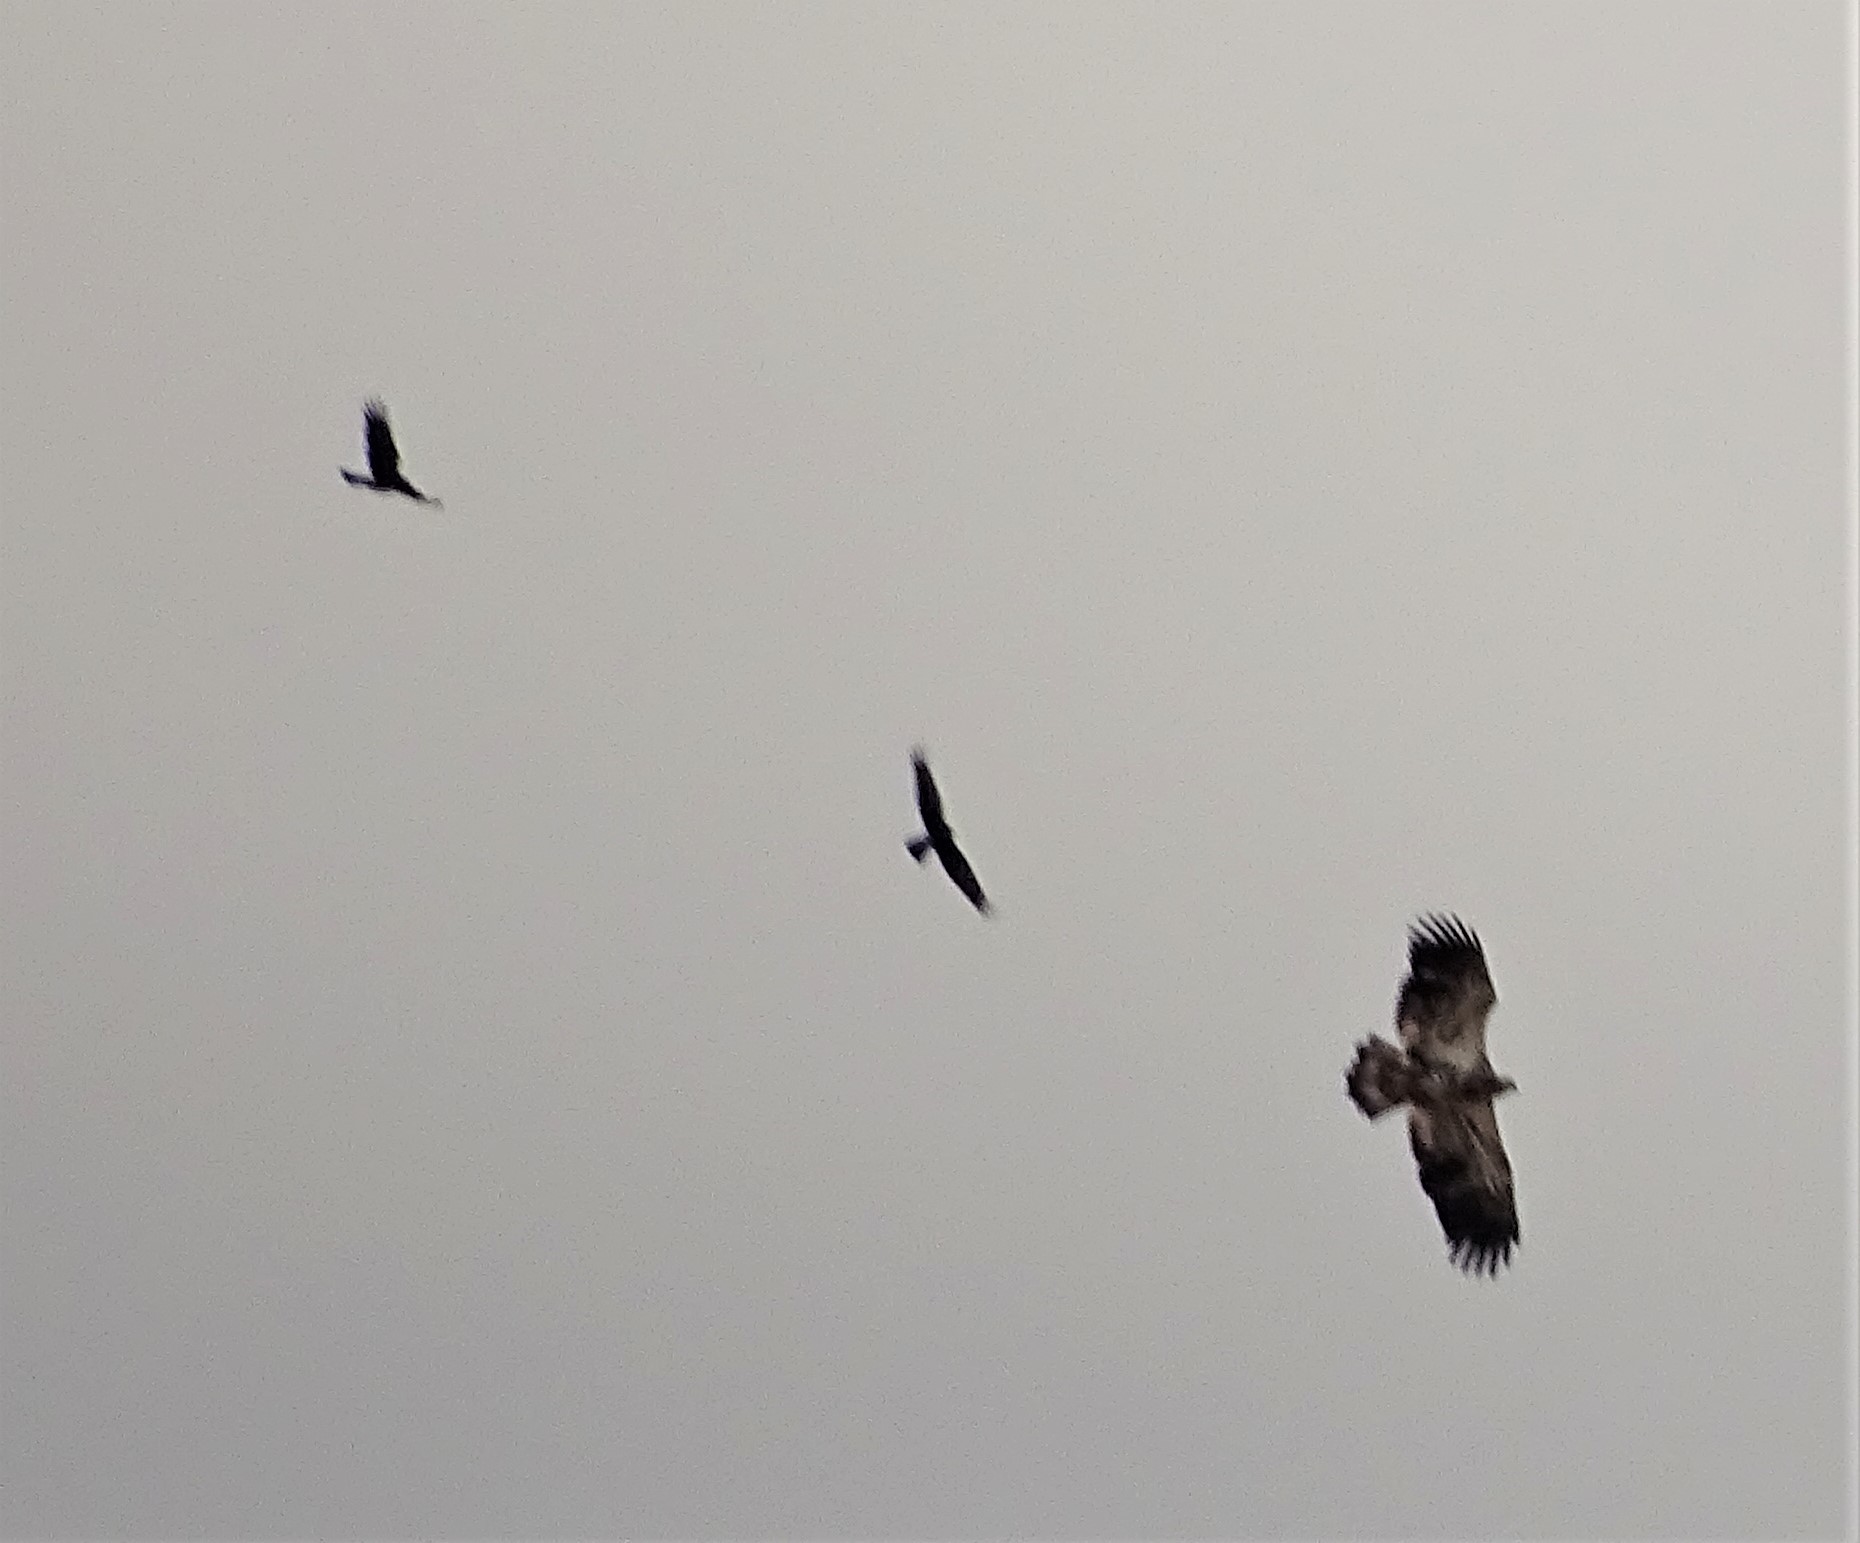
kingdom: Animalia
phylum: Chordata
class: Aves
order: Accipitriformes
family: Accipitridae
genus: Haliaeetus
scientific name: Haliaeetus leucocephalus
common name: Bald eagle
